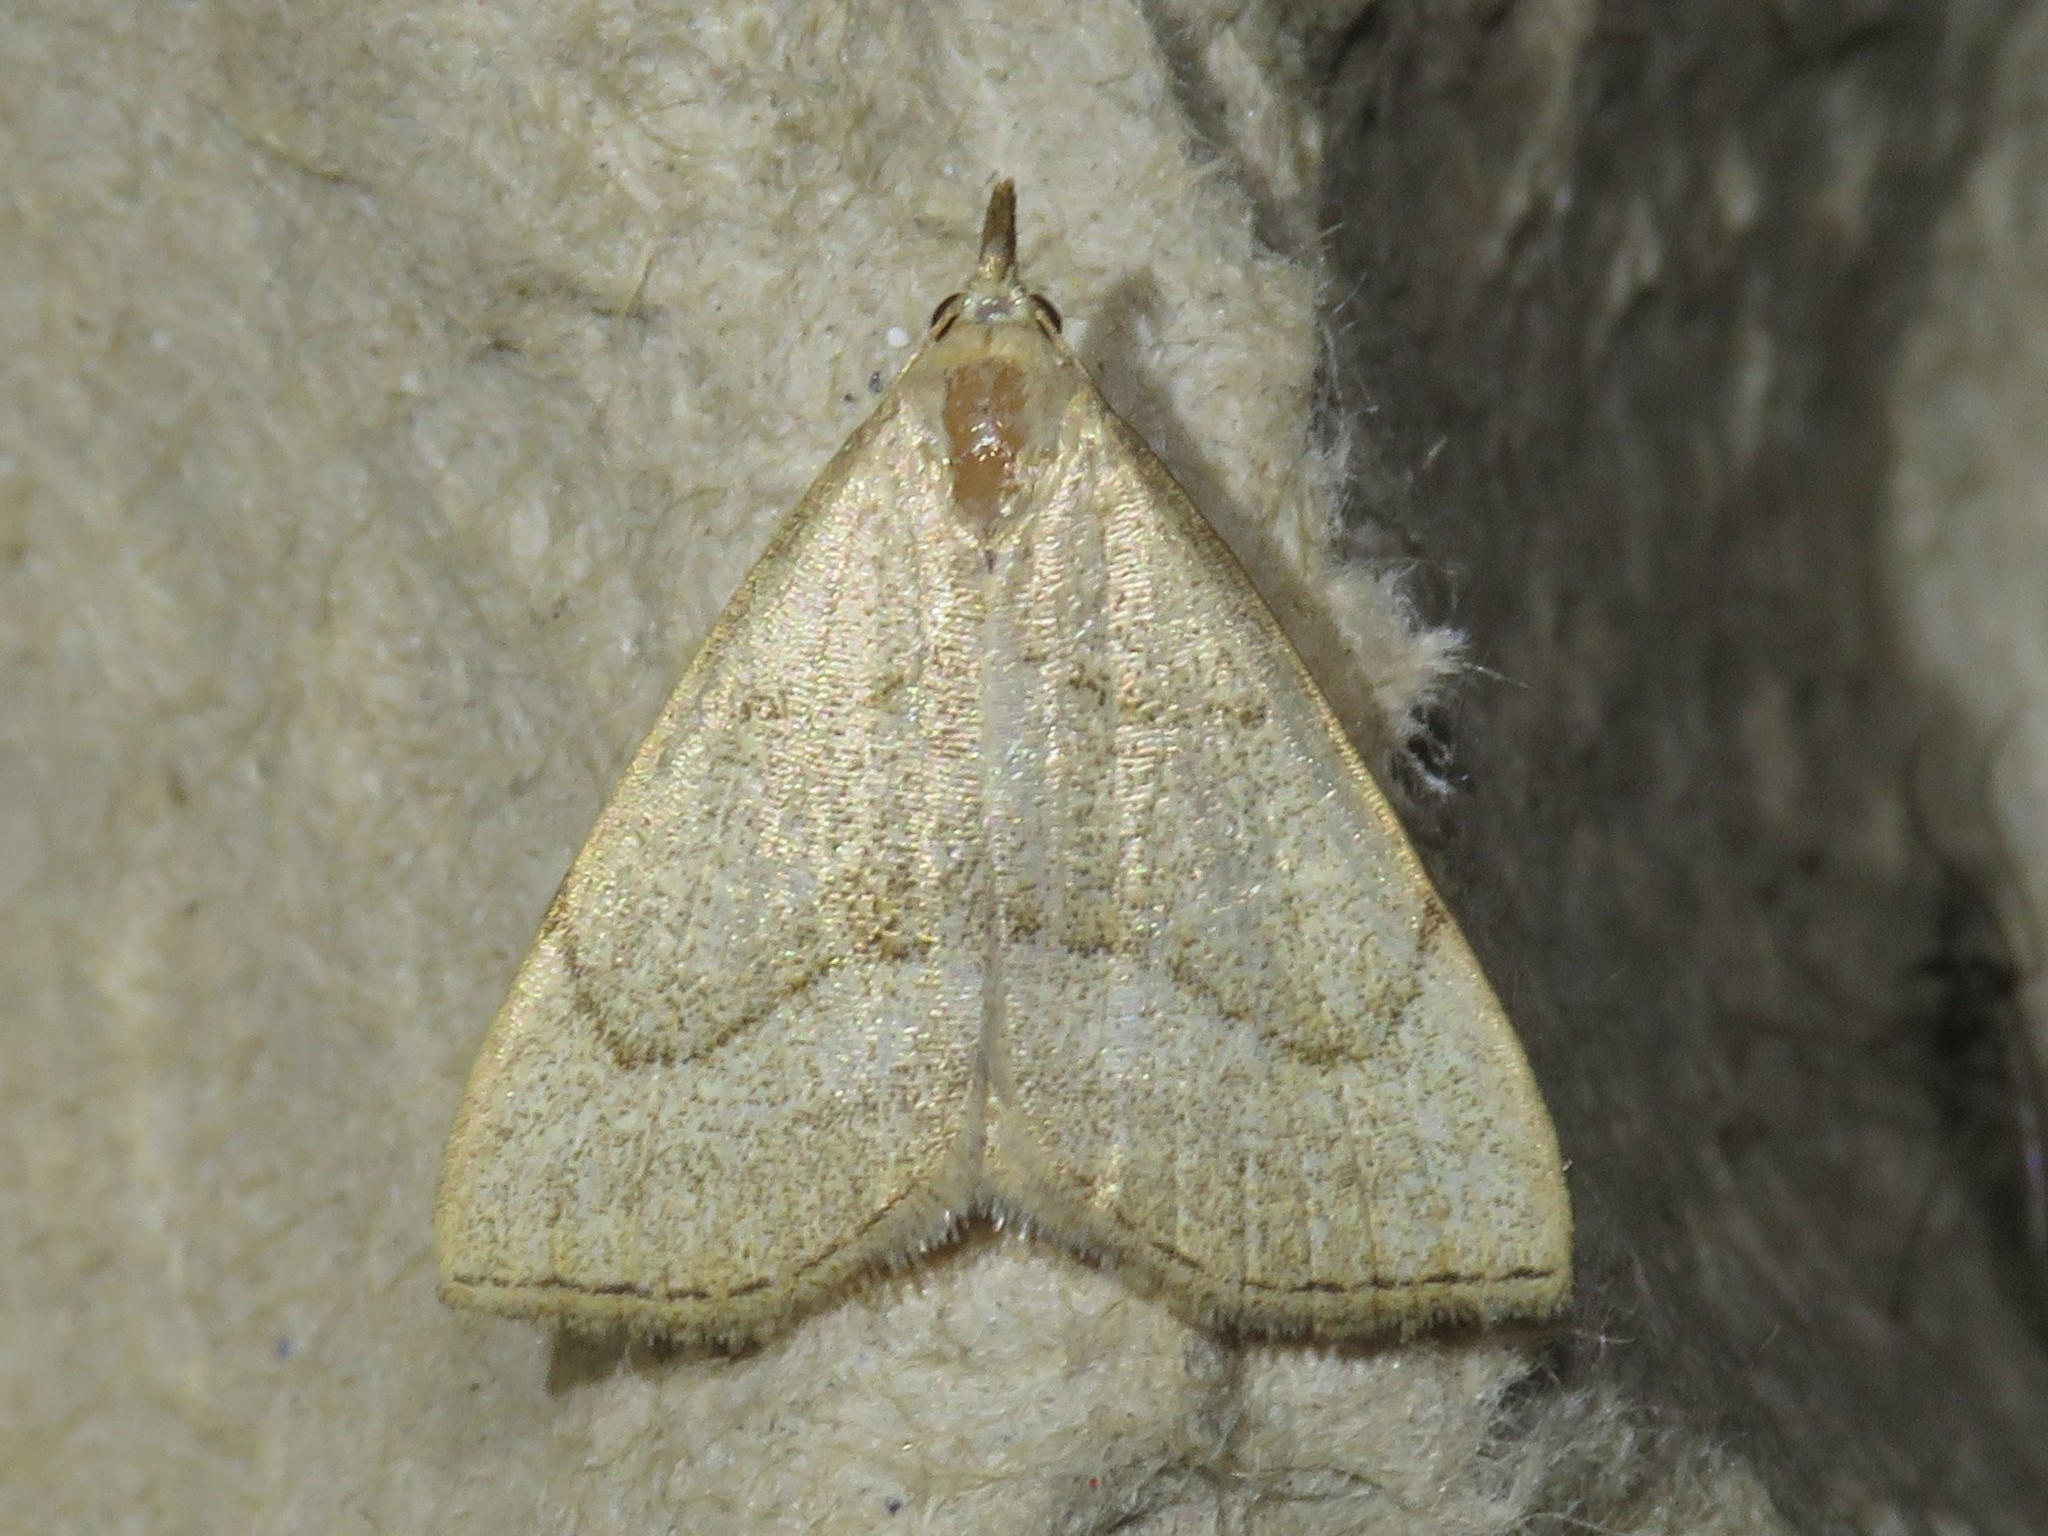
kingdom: Animalia
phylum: Arthropoda
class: Insecta
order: Lepidoptera
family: Erebidae
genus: Macrochilo
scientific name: Macrochilo litophora
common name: Brown-lined owlet
